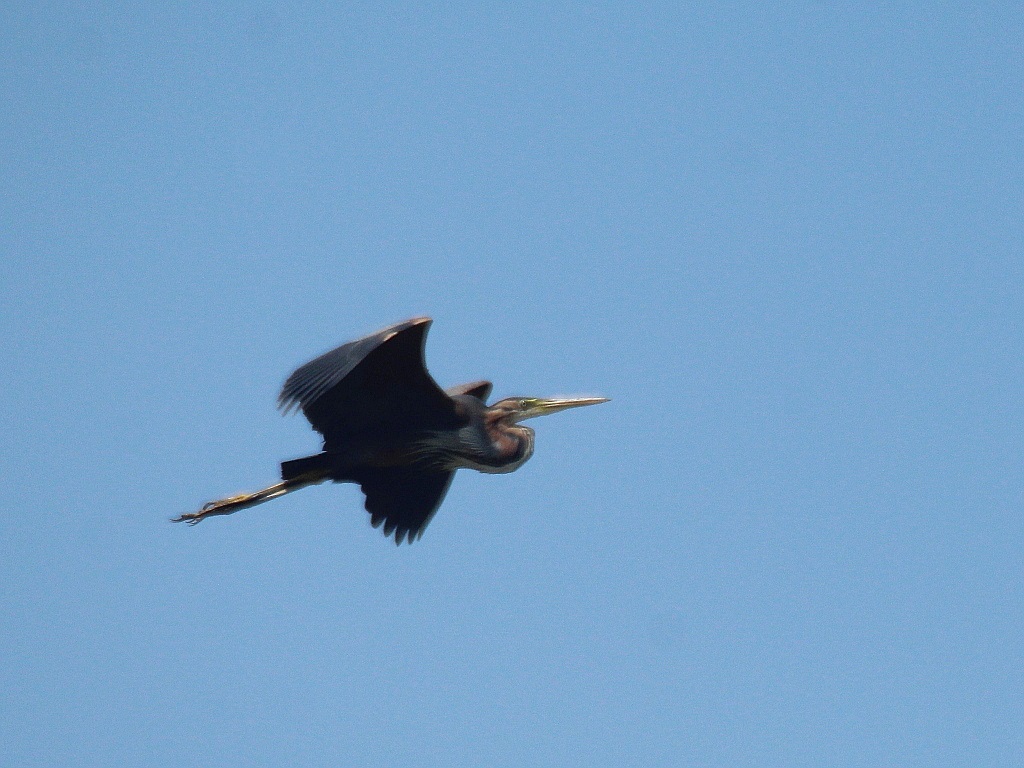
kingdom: Animalia
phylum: Chordata
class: Aves
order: Pelecaniformes
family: Ardeidae
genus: Ardea
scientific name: Ardea purpurea
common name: Purple heron
